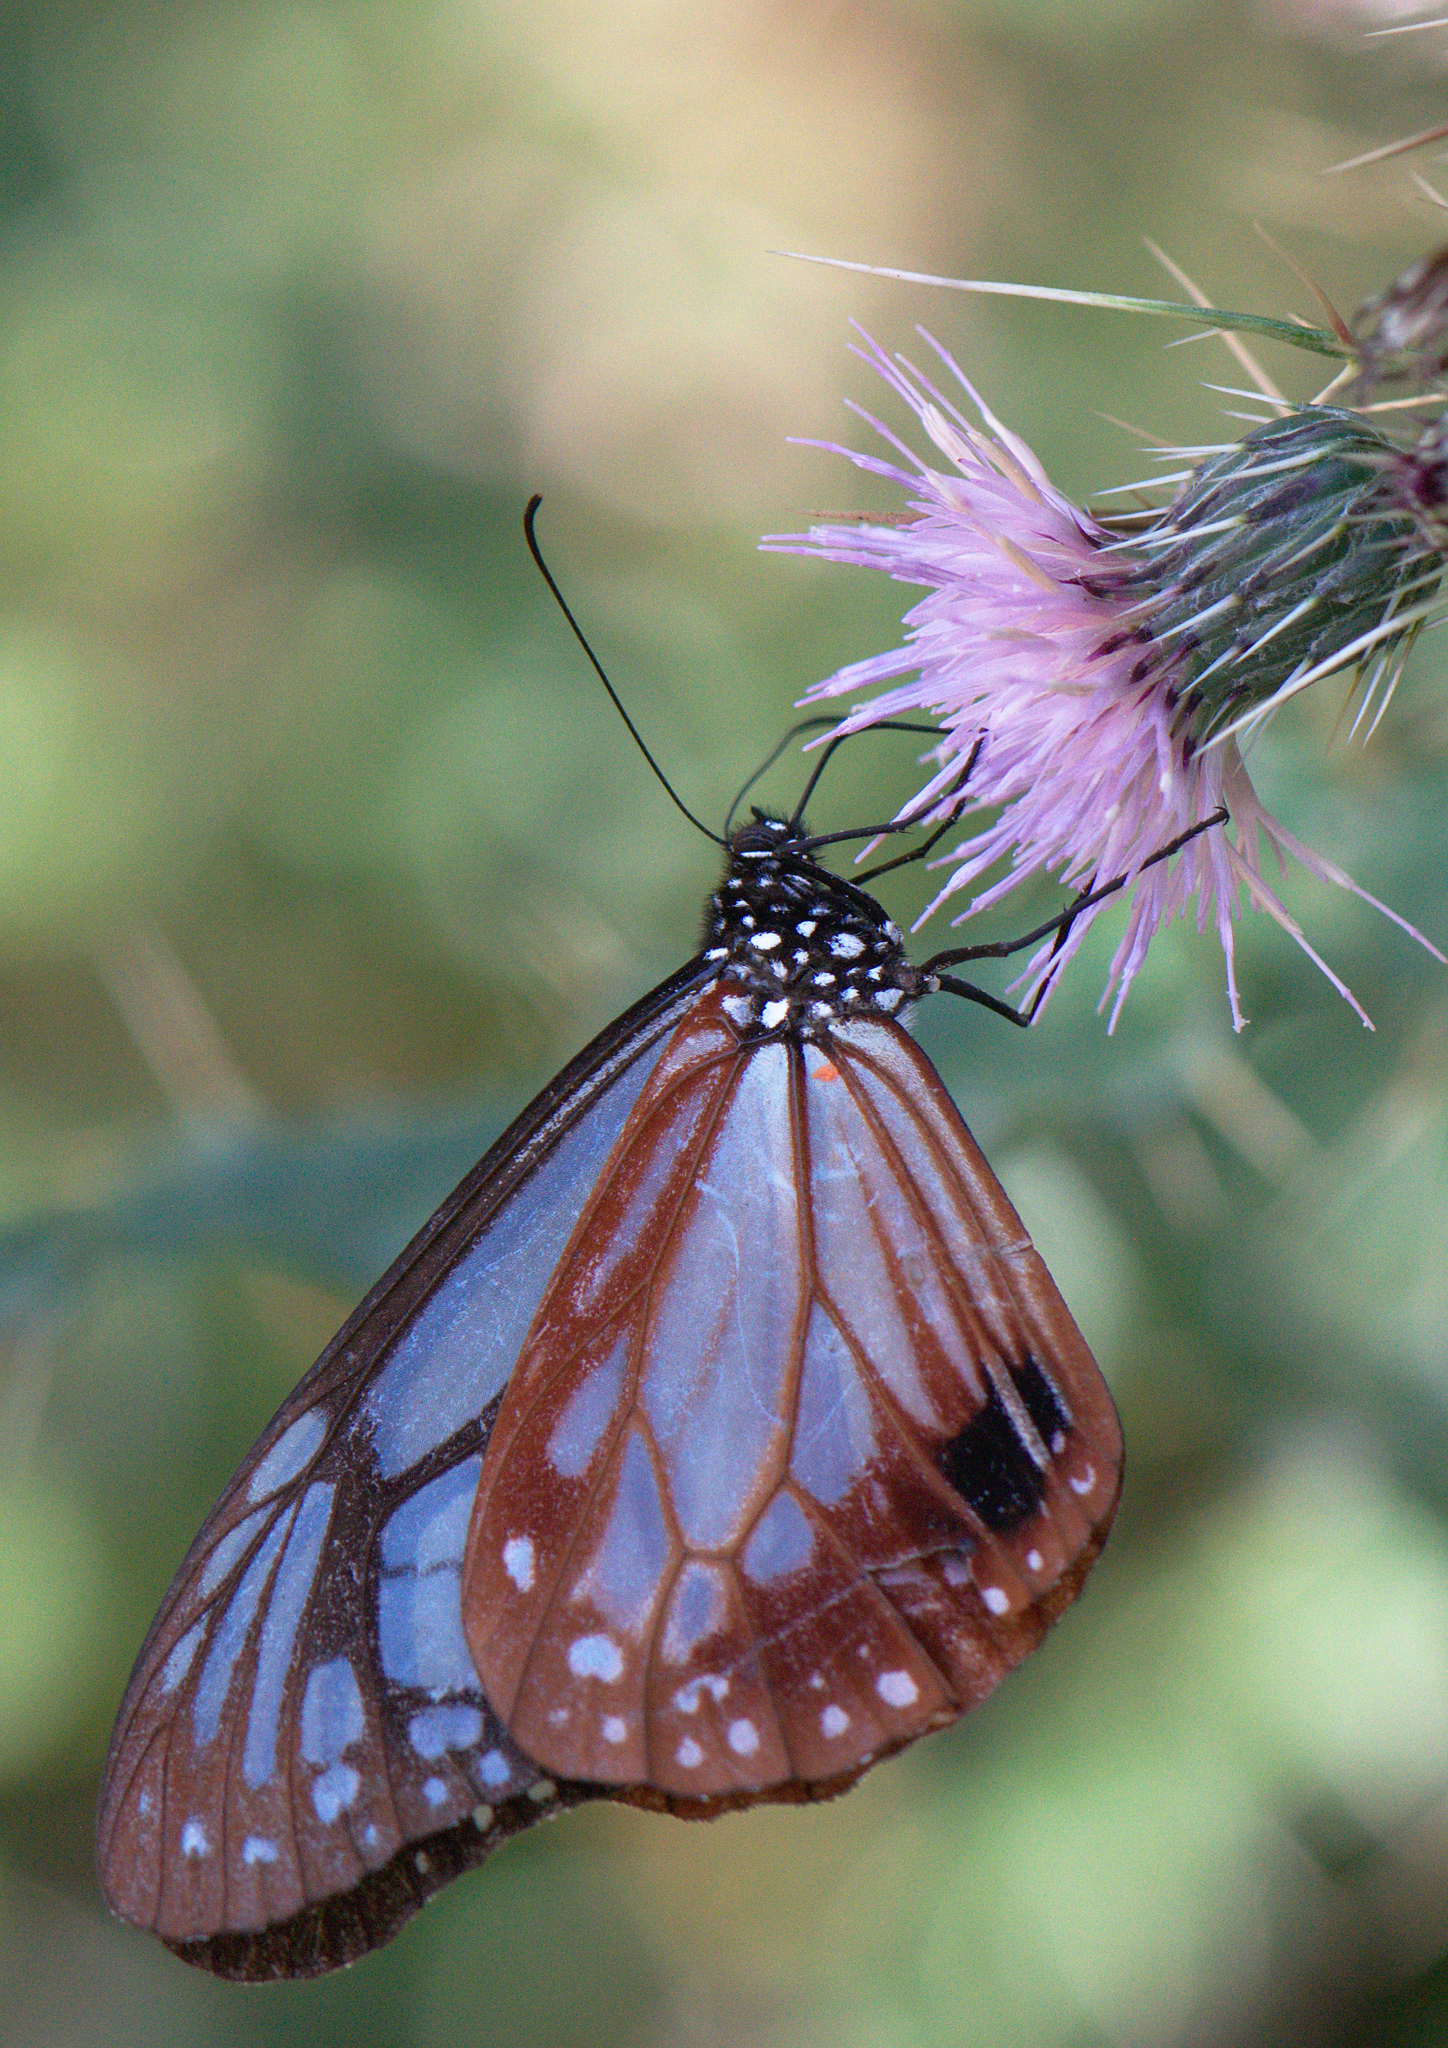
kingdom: Animalia
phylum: Arthropoda
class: Insecta
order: Lepidoptera
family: Nymphalidae
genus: Parantica
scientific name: Parantica sita
